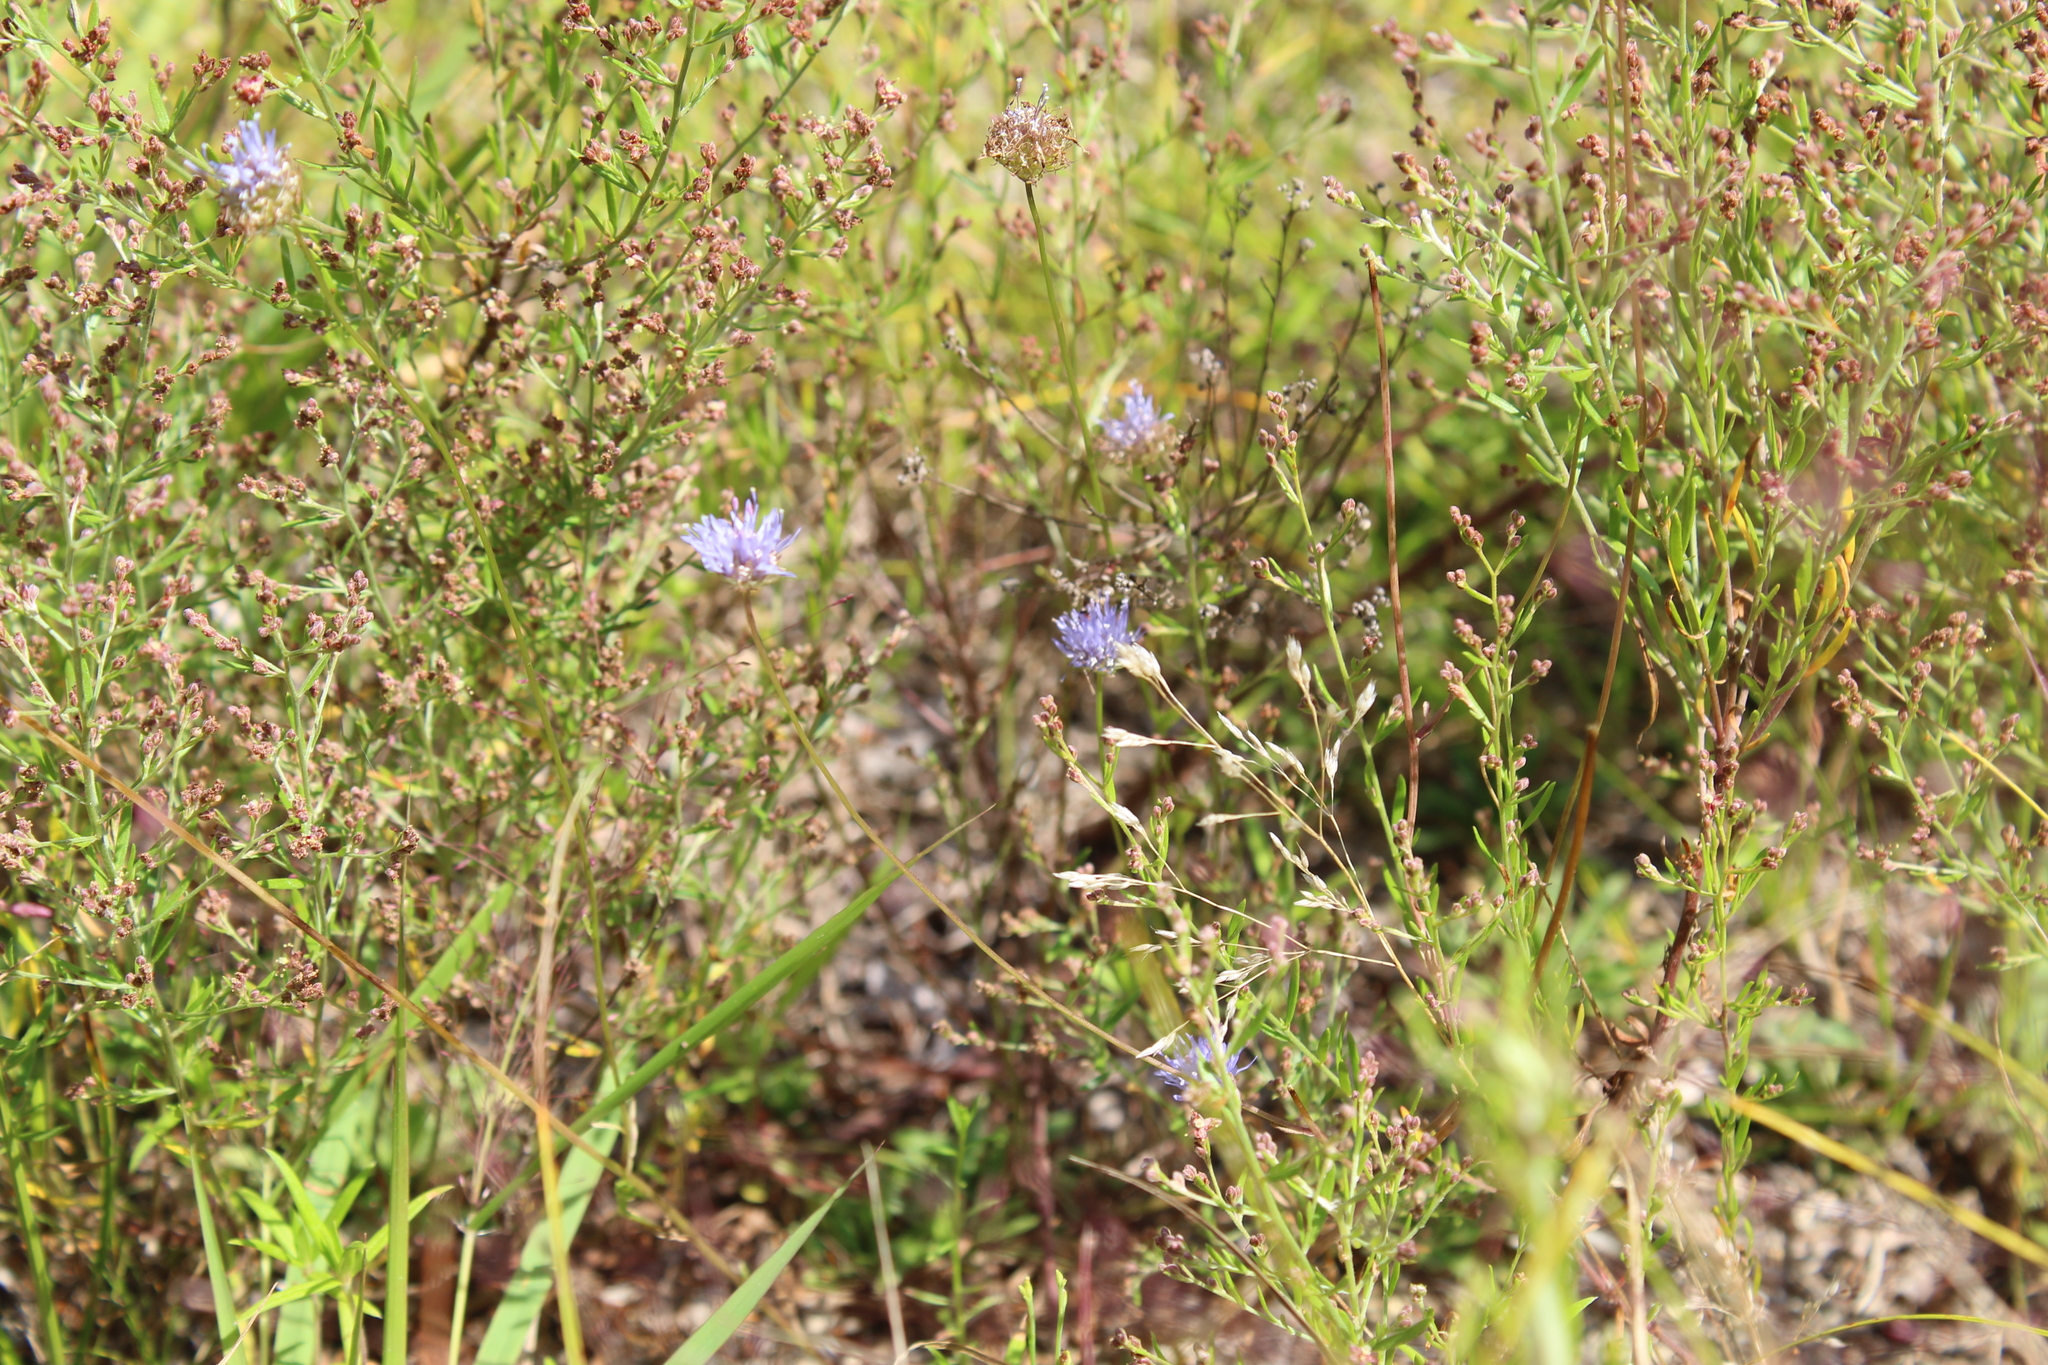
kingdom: Plantae
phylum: Tracheophyta
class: Magnoliopsida
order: Asterales
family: Campanulaceae
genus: Jasione
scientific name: Jasione montana
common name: Sheep's-bit
